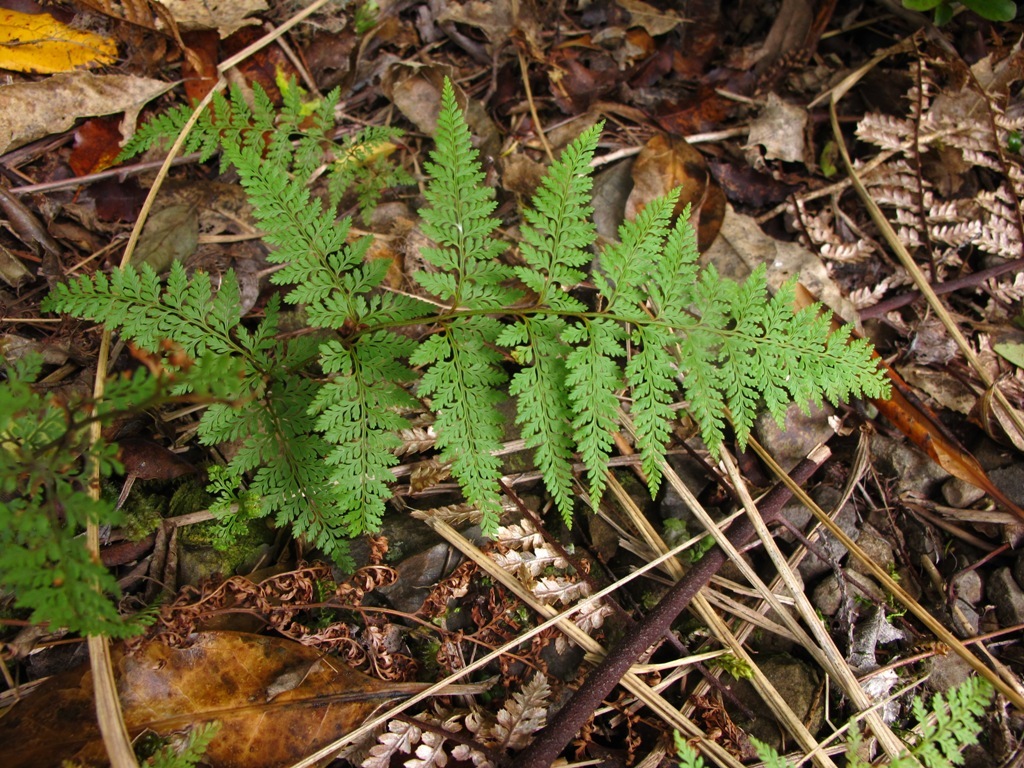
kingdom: Plantae
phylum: Tracheophyta
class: Polypodiopsida
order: Polypodiales
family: Dennstaedtiaceae
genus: Paesia
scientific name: Paesia scaberula
